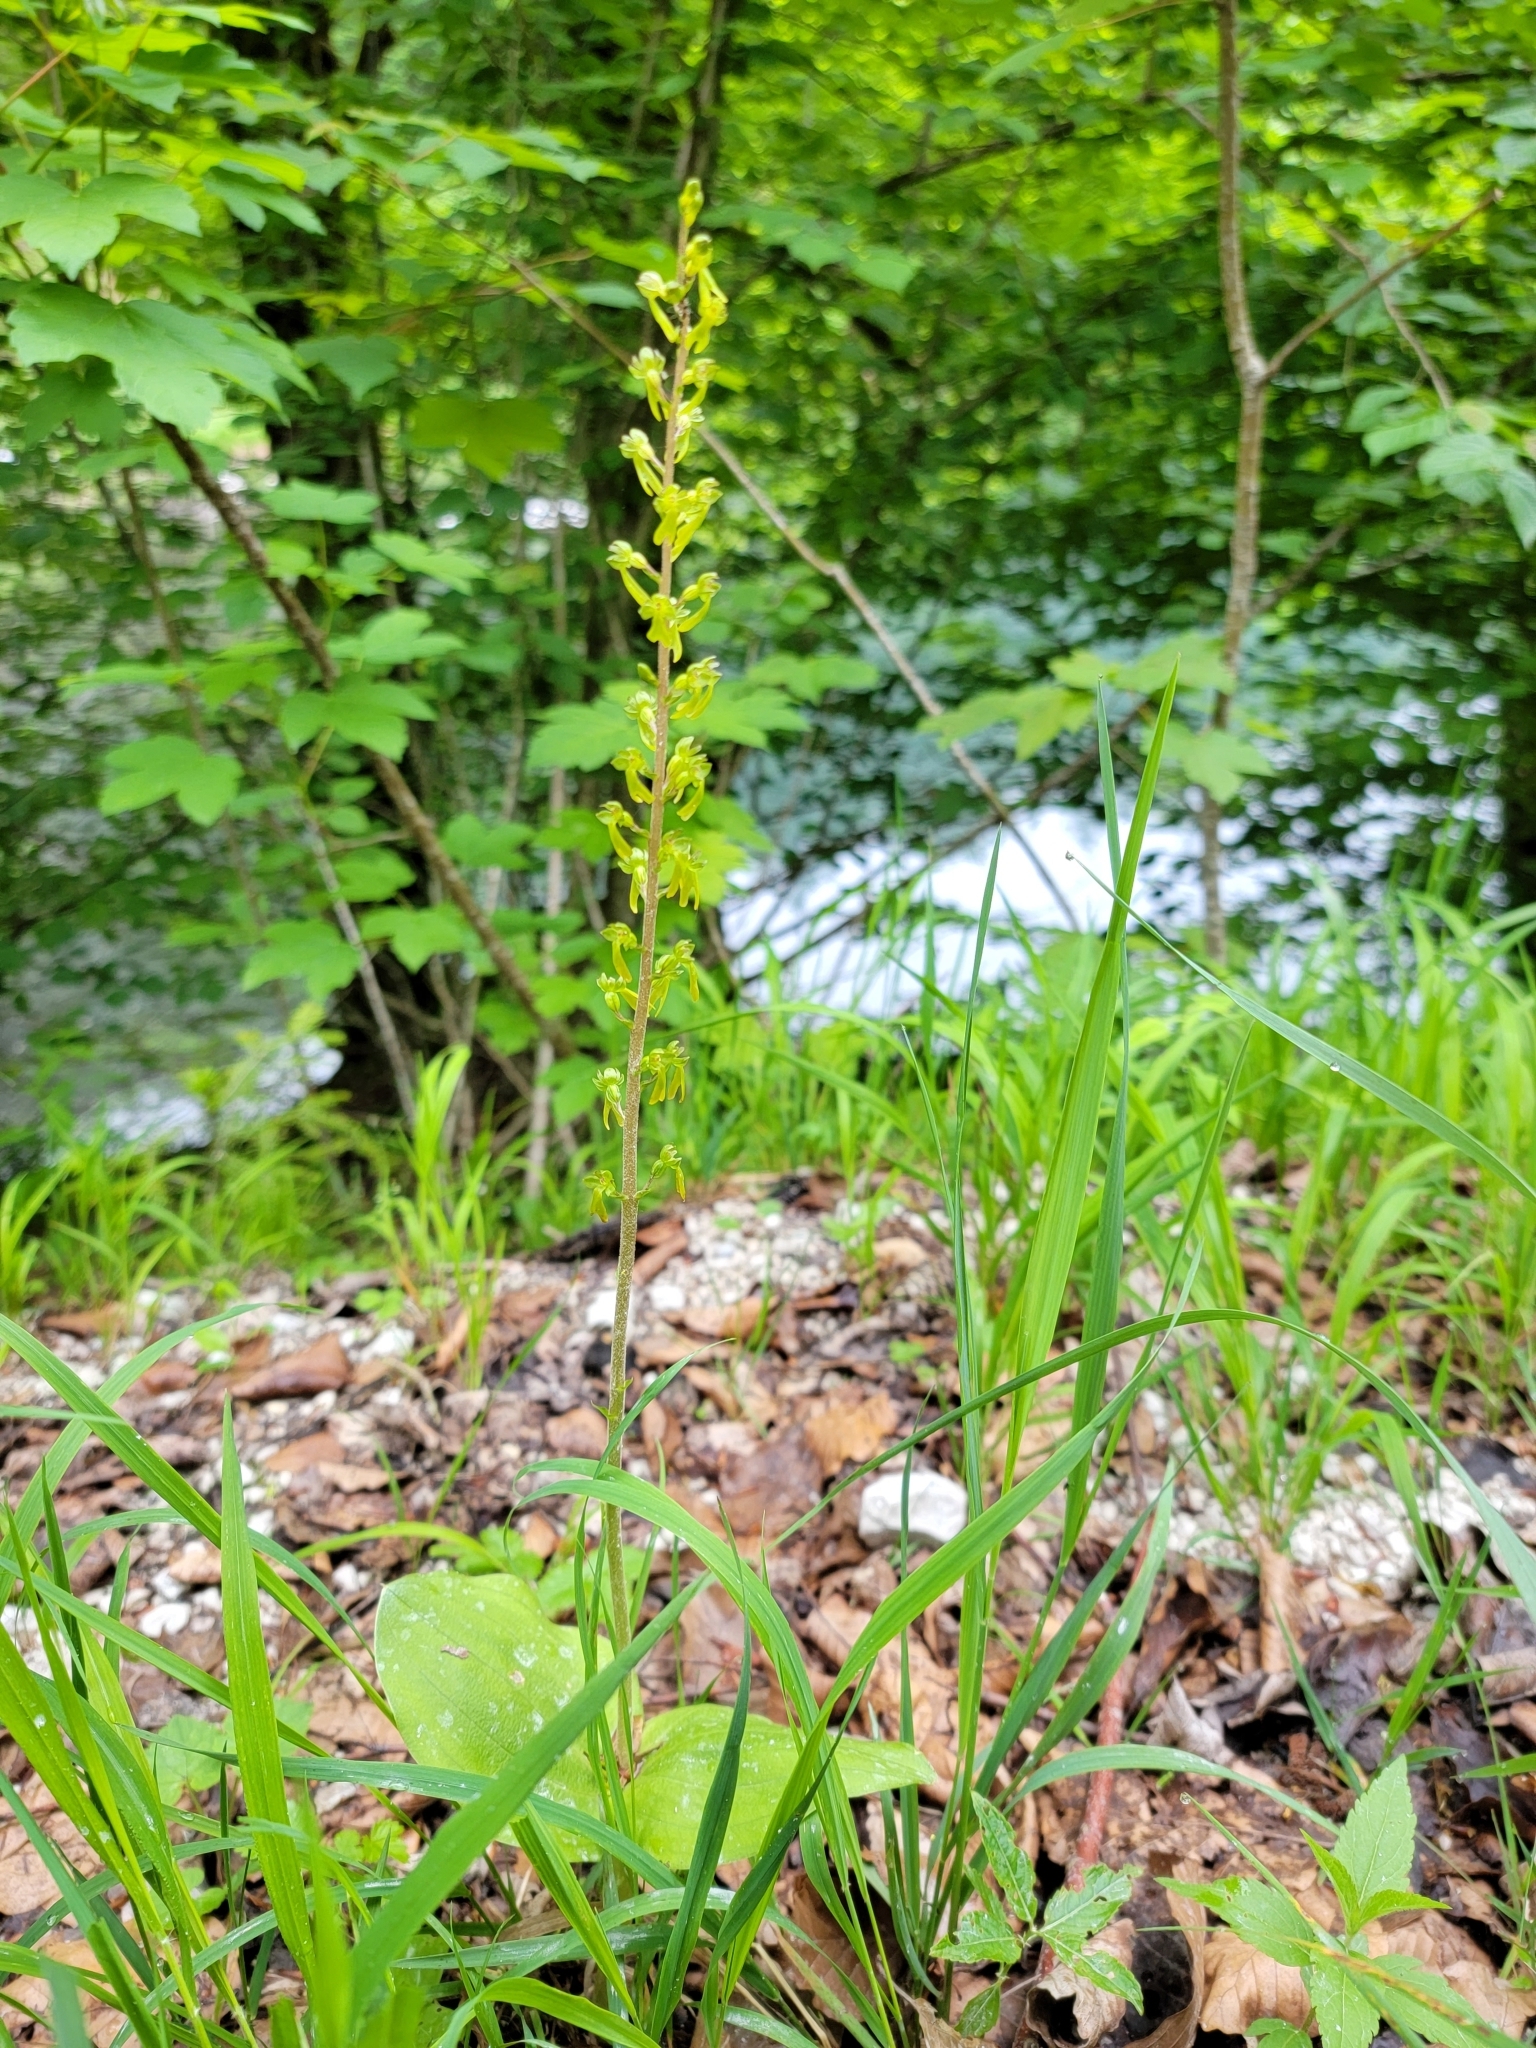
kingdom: Plantae
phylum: Tracheophyta
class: Liliopsida
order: Asparagales
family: Orchidaceae
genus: Neottia
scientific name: Neottia ovata
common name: Common twayblade
